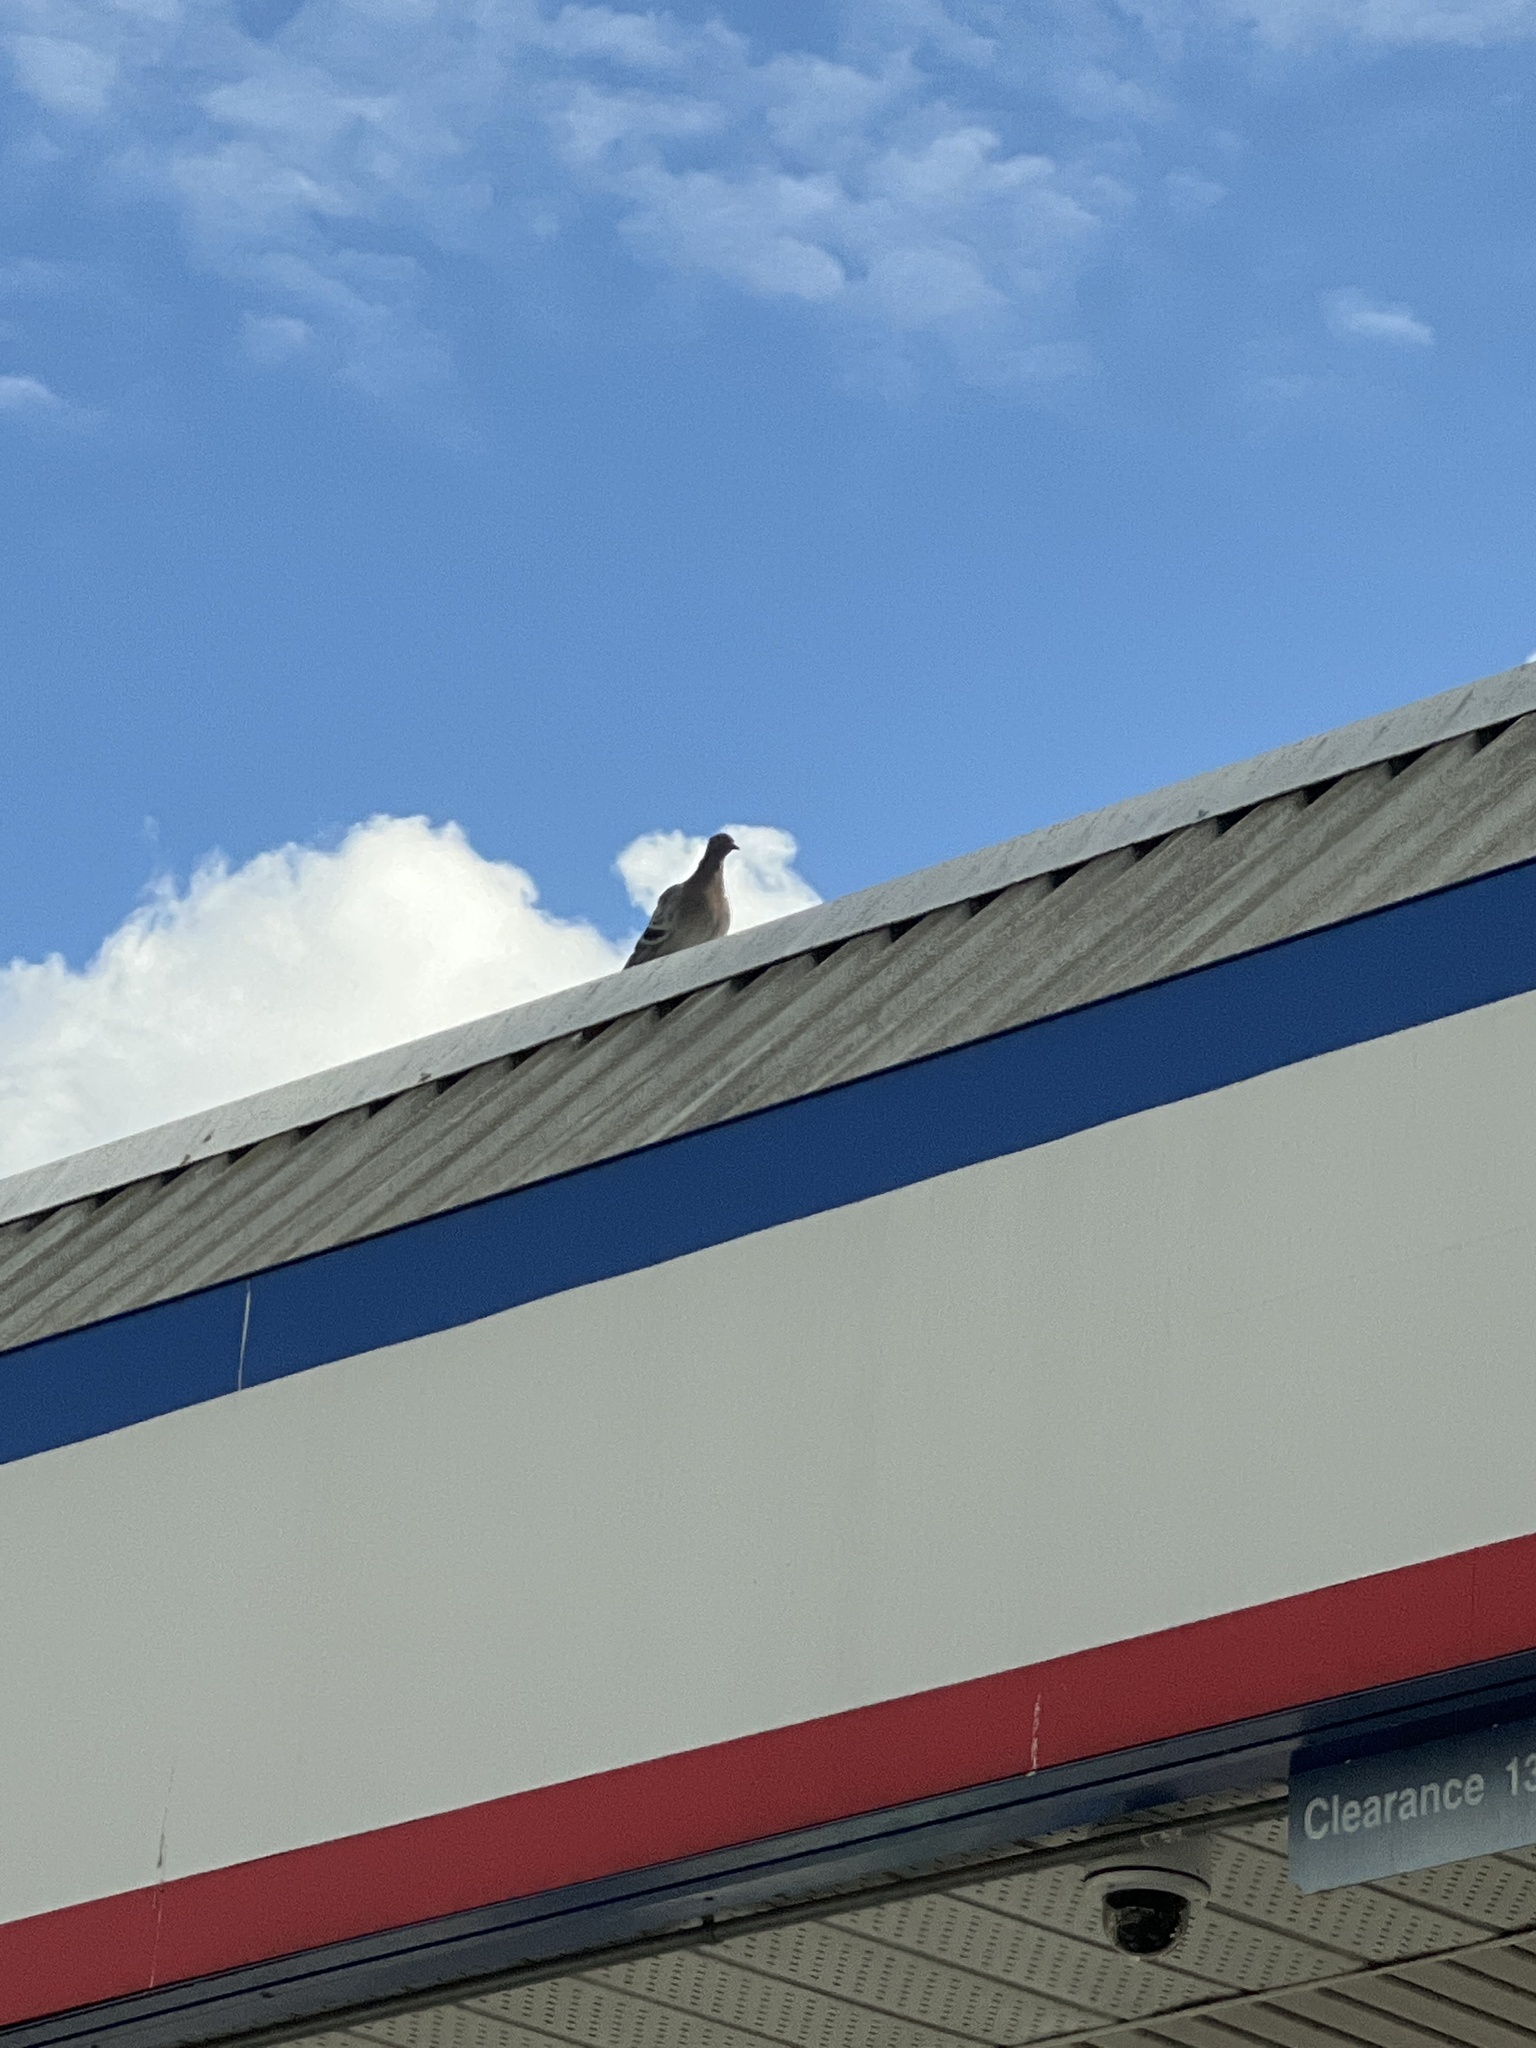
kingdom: Animalia
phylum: Chordata
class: Aves
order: Columbiformes
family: Columbidae
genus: Columba
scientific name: Columba livia
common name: Rock pigeon
